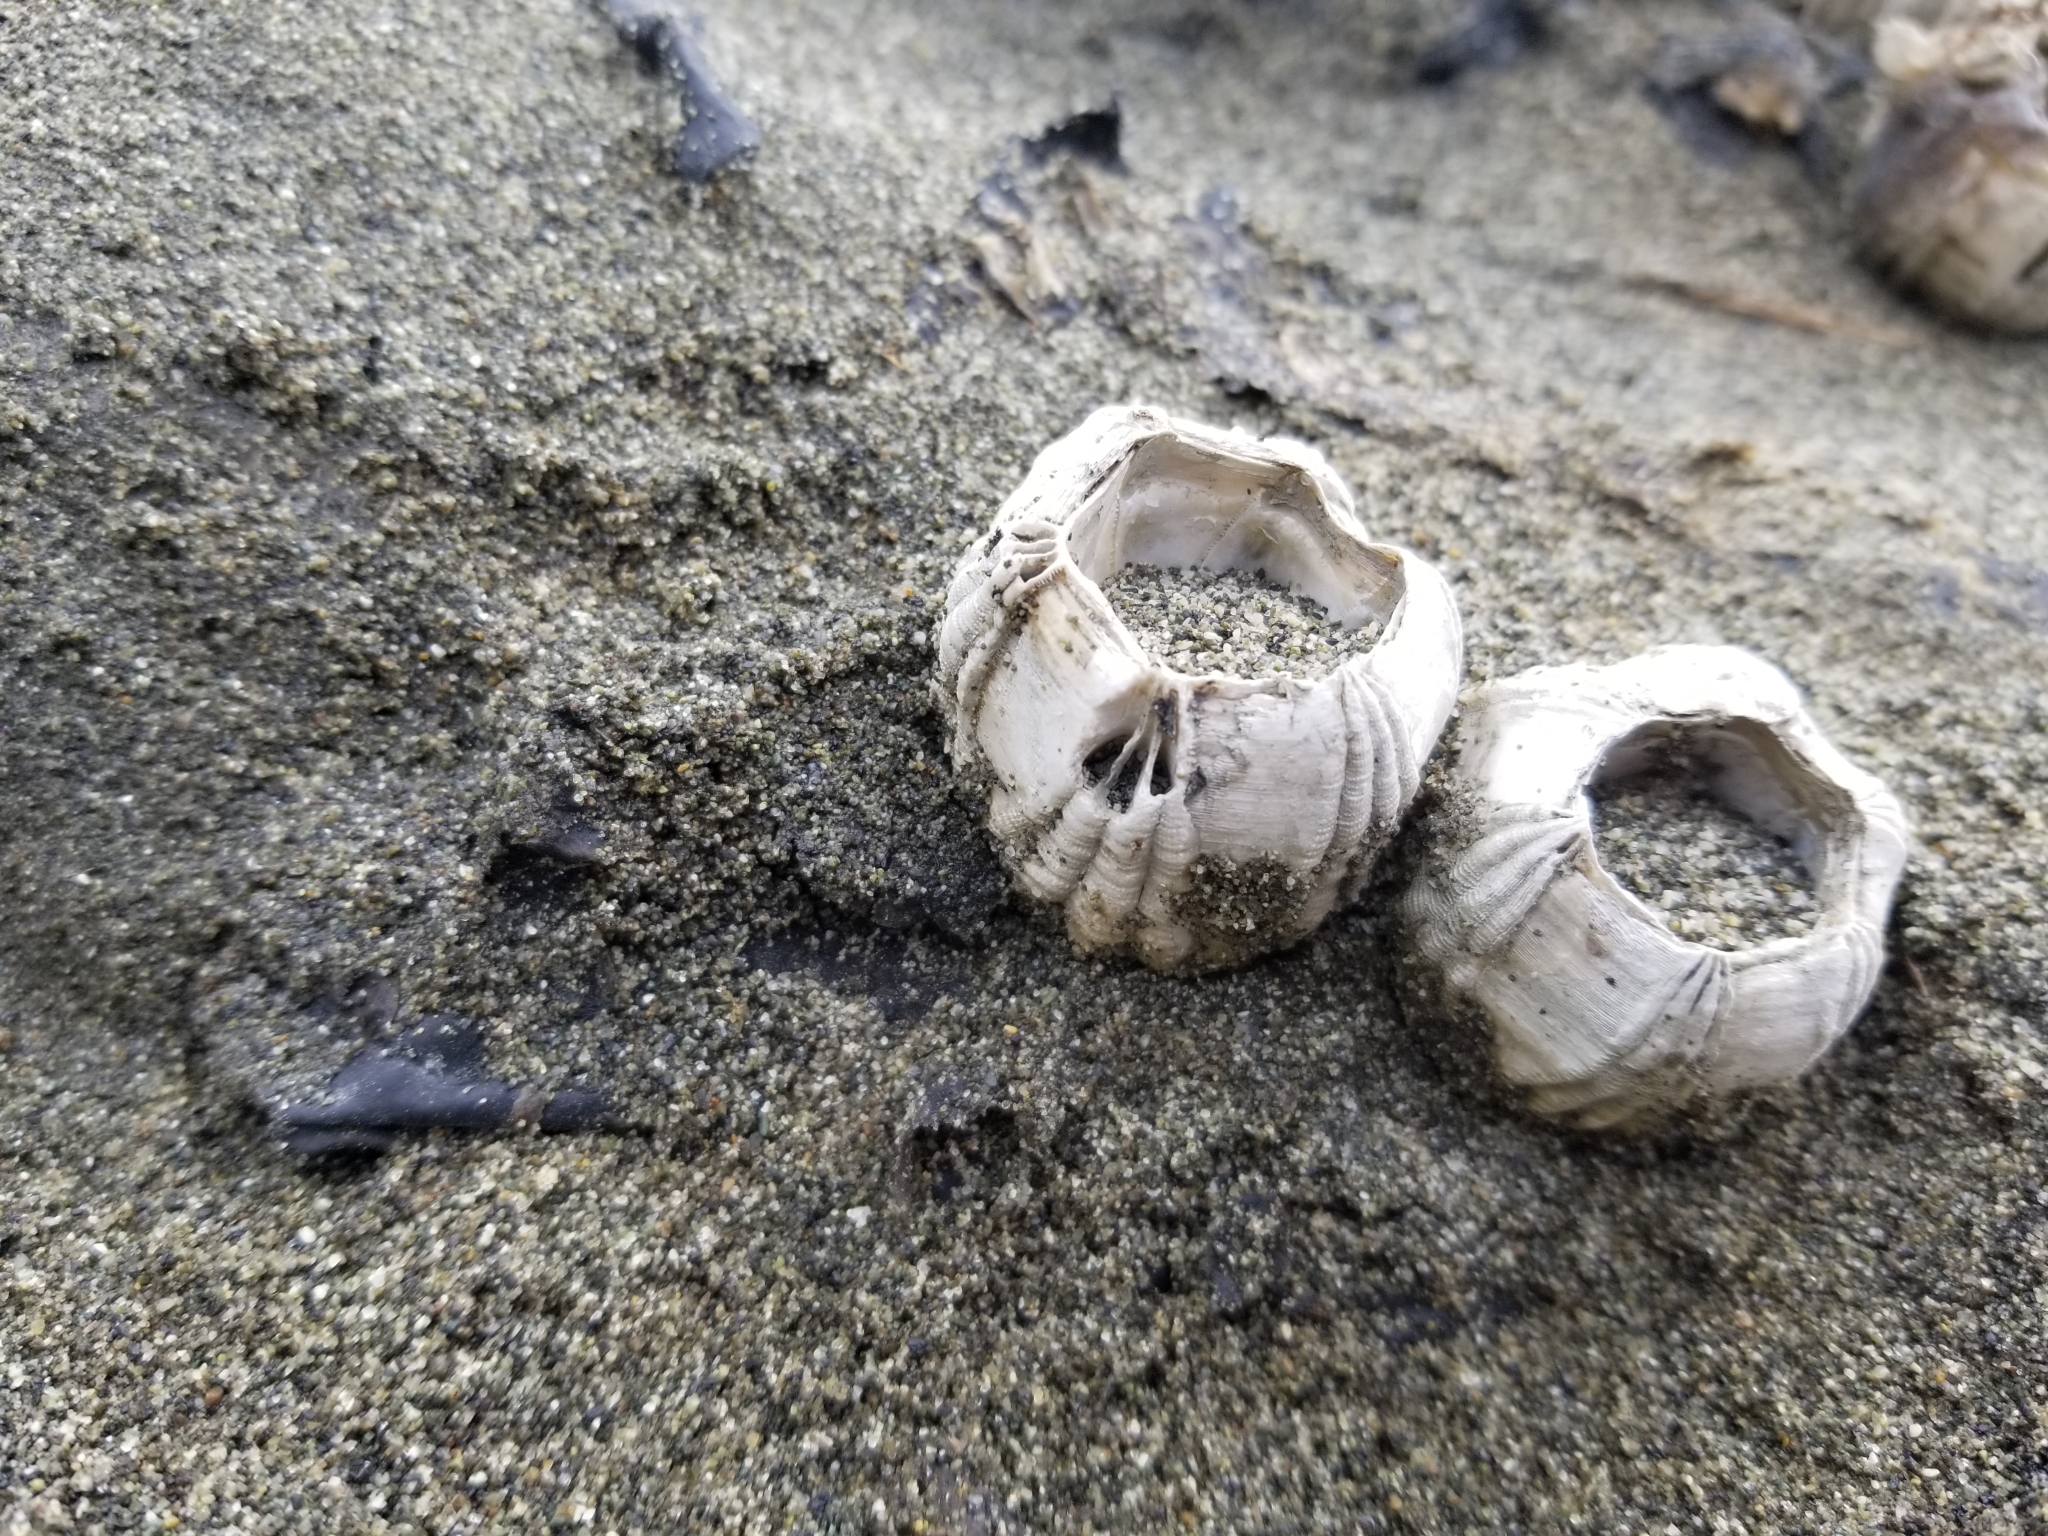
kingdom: Animalia
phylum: Arthropoda
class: Maxillopoda
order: Sessilia
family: Coronulidae
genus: Coronula
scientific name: Coronula diadema
